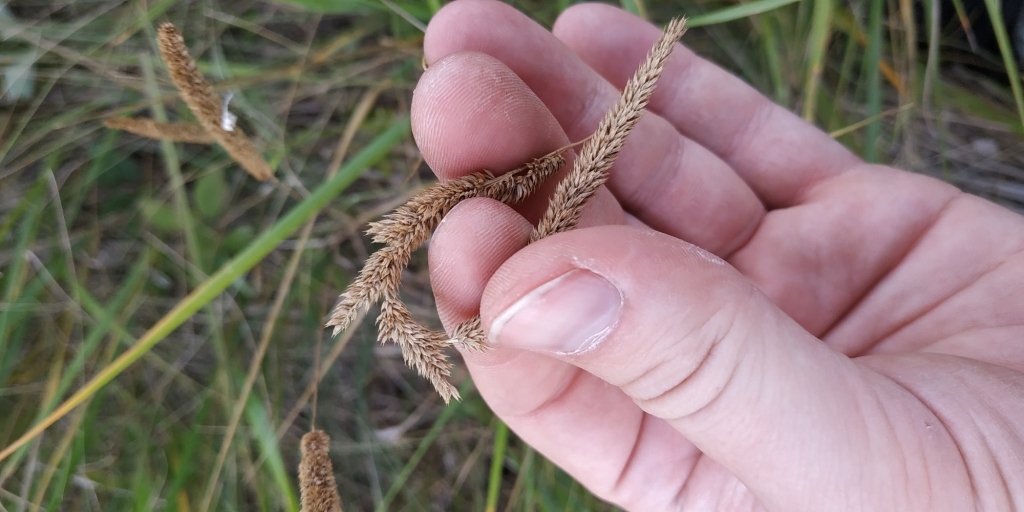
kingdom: Plantae
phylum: Tracheophyta
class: Liliopsida
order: Poales
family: Poaceae
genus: Phleum
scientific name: Phleum phleoides
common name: Purple-stem cat's-tail
